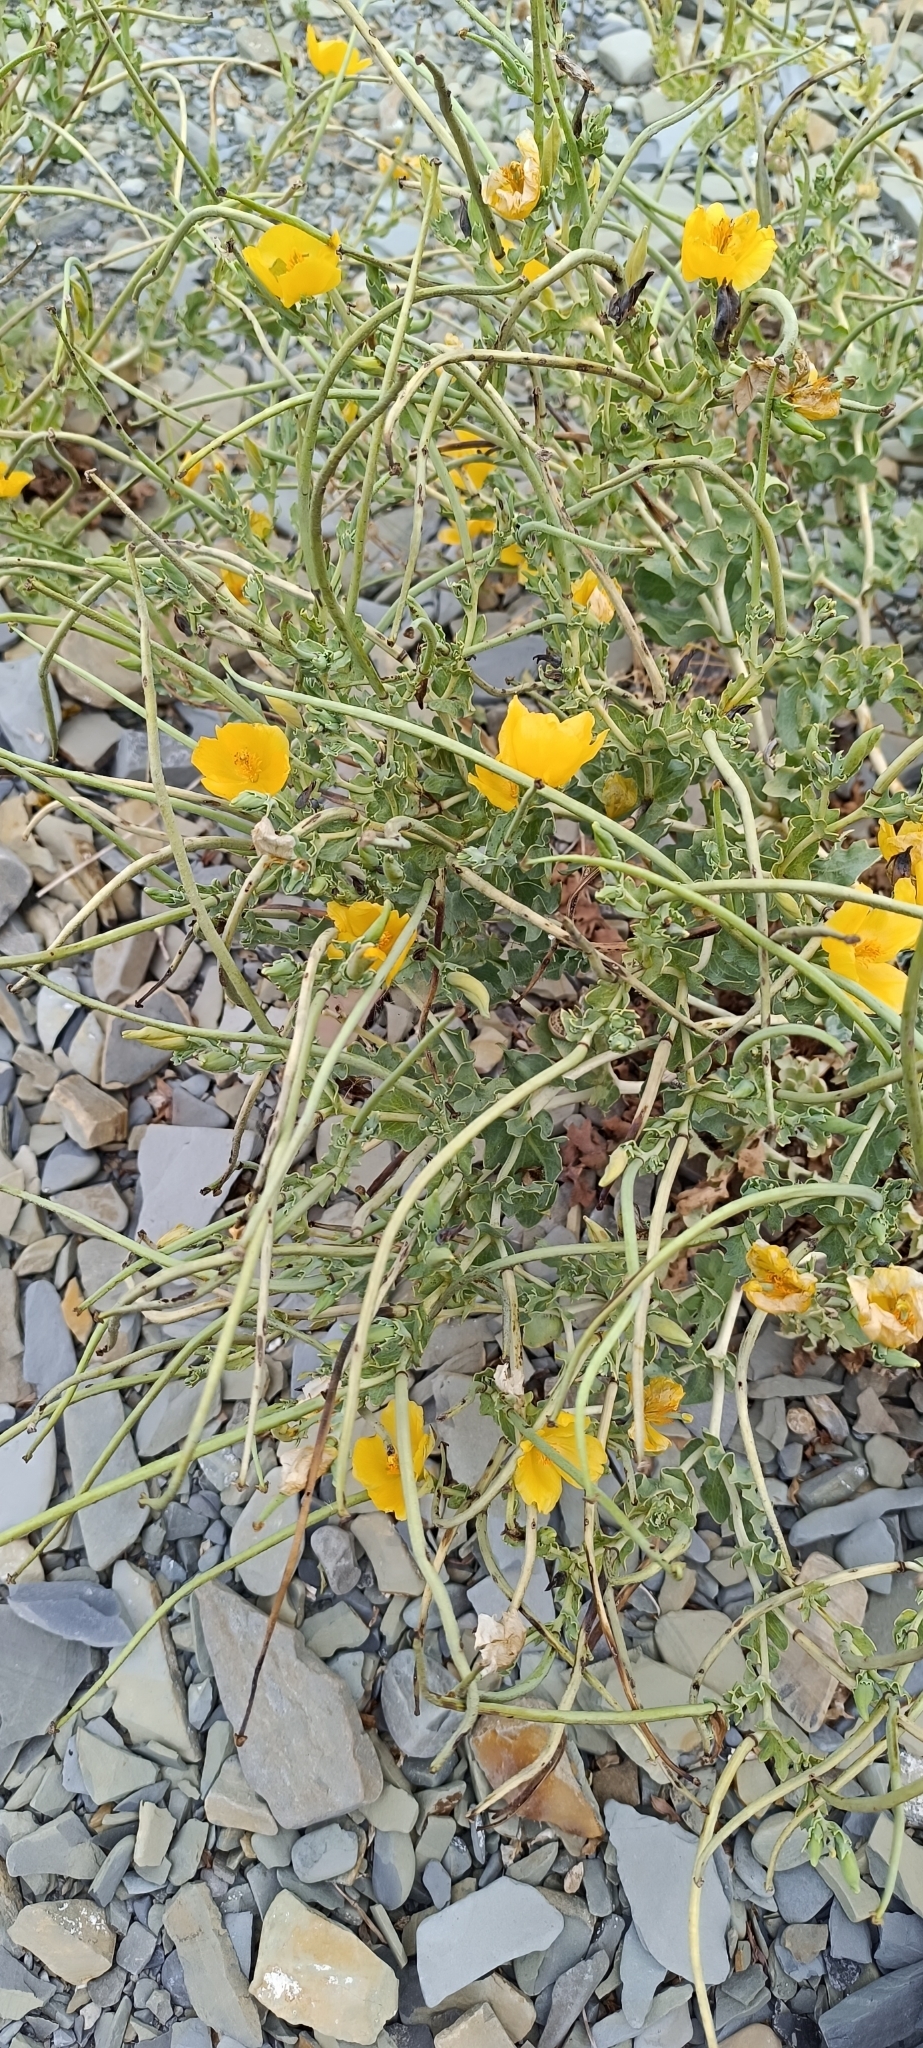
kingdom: Plantae
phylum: Tracheophyta
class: Magnoliopsida
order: Ranunculales
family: Papaveraceae
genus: Glaucium
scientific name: Glaucium flavum
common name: Yellow horned-poppy
